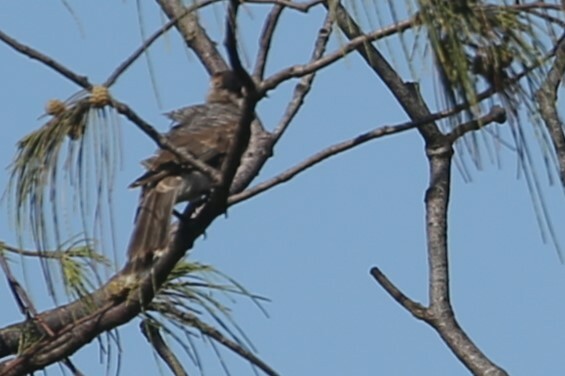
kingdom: Animalia
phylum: Chordata
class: Aves
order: Passeriformes
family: Meliphagidae
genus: Philemon
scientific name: Philemon corniculatus
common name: Noisy friarbird
